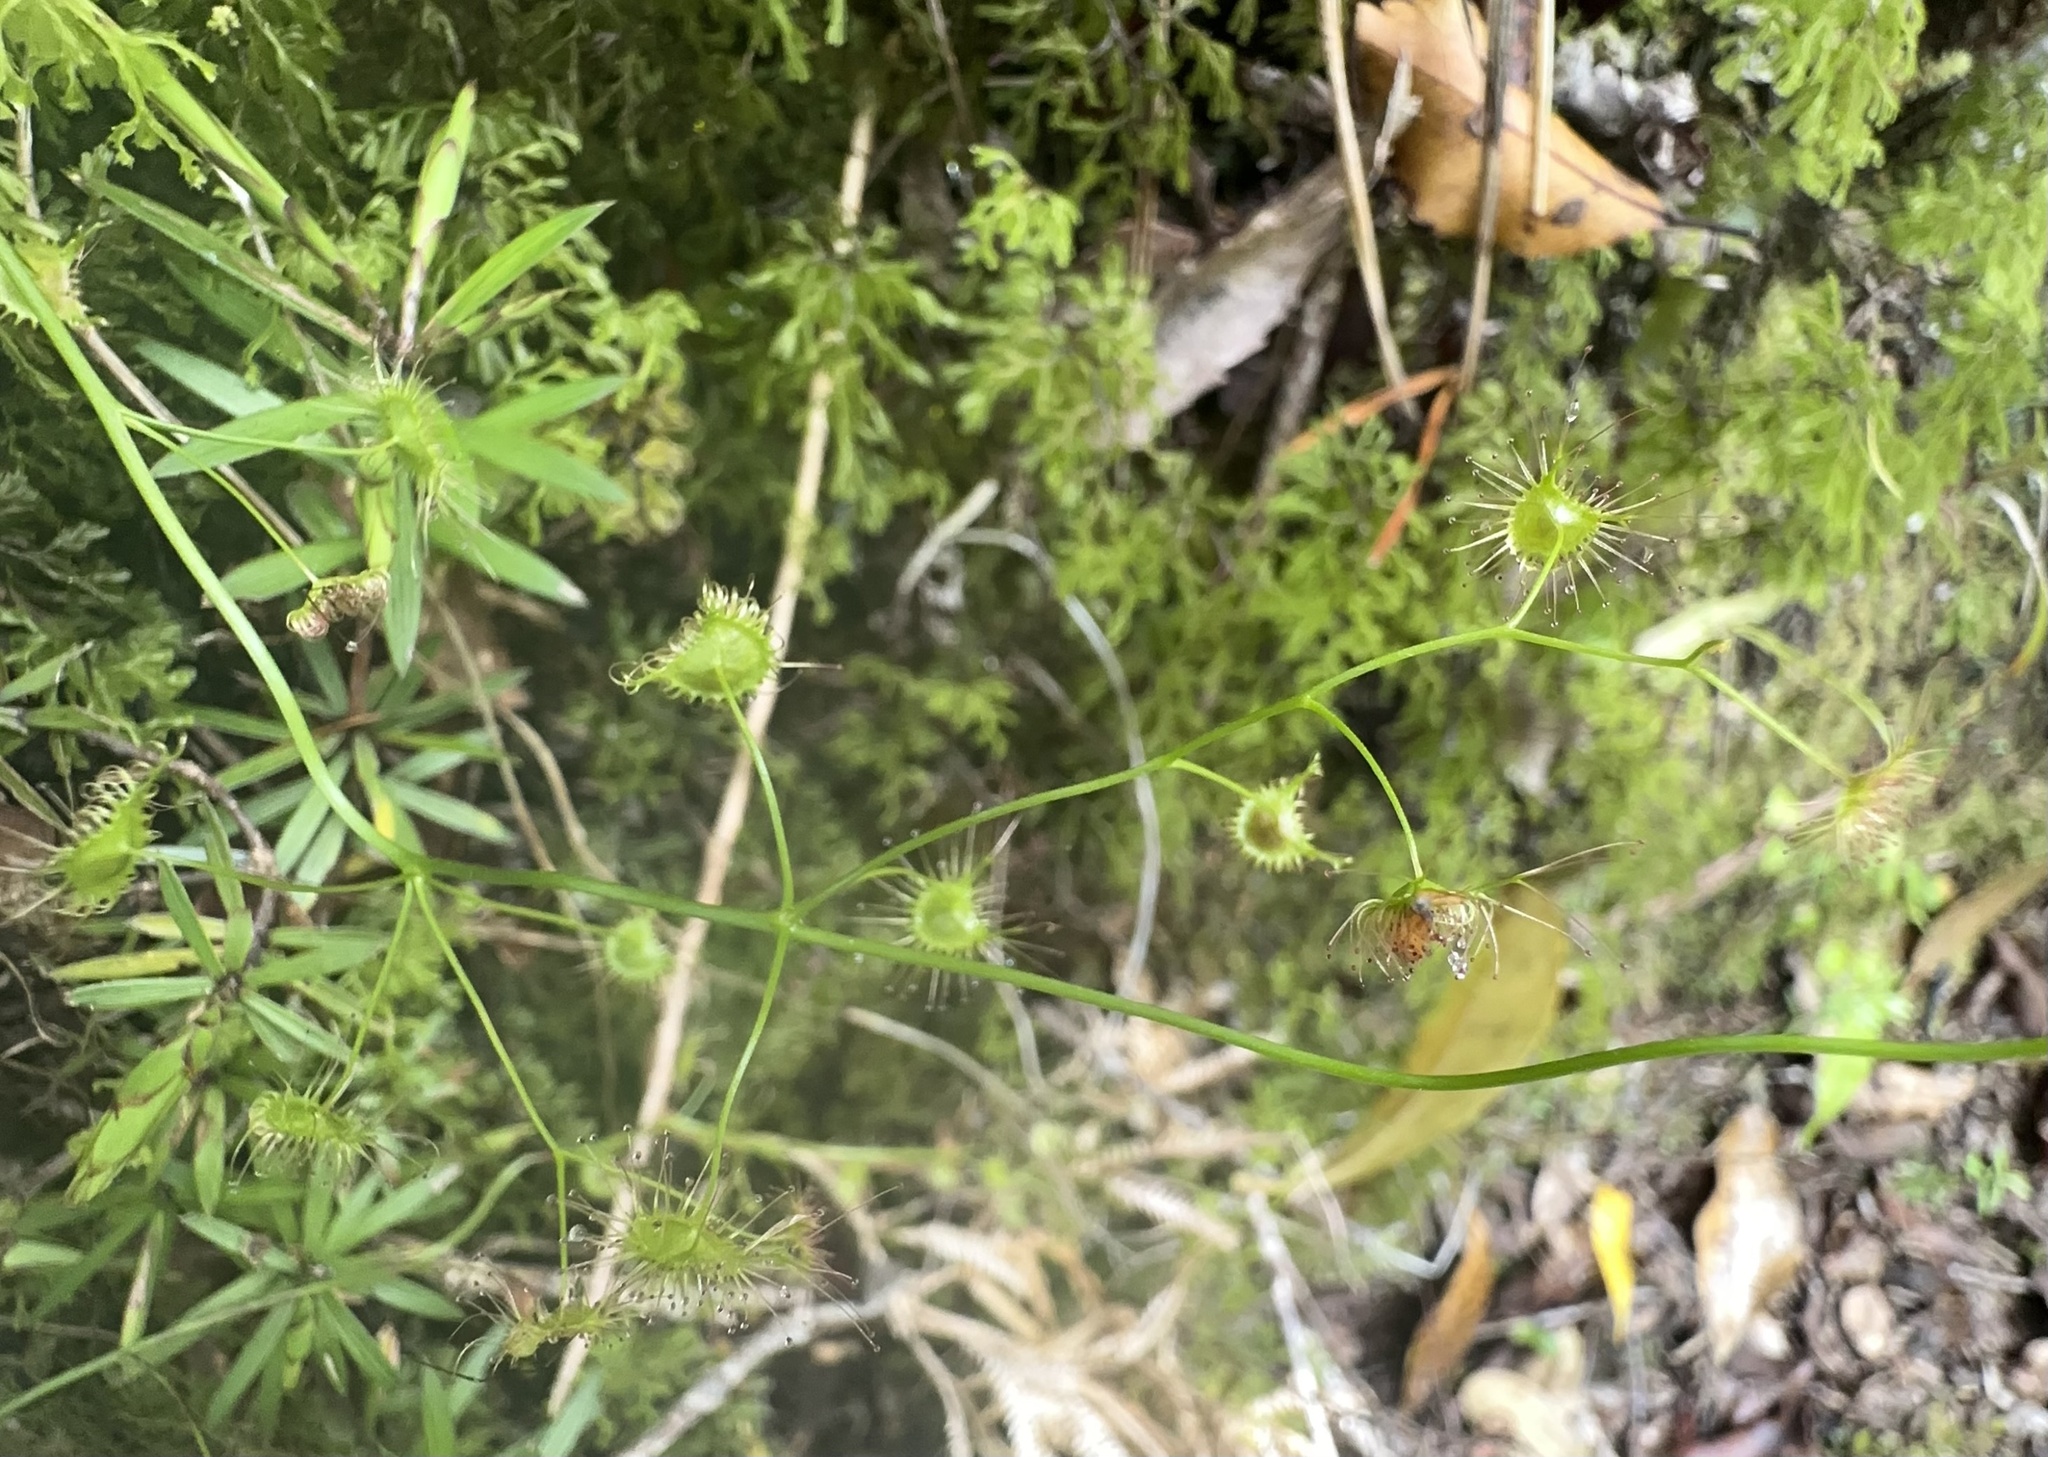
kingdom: Plantae
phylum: Tracheophyta
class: Magnoliopsida
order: Caryophyllales
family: Droseraceae
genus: Drosera
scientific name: Drosera peltata
